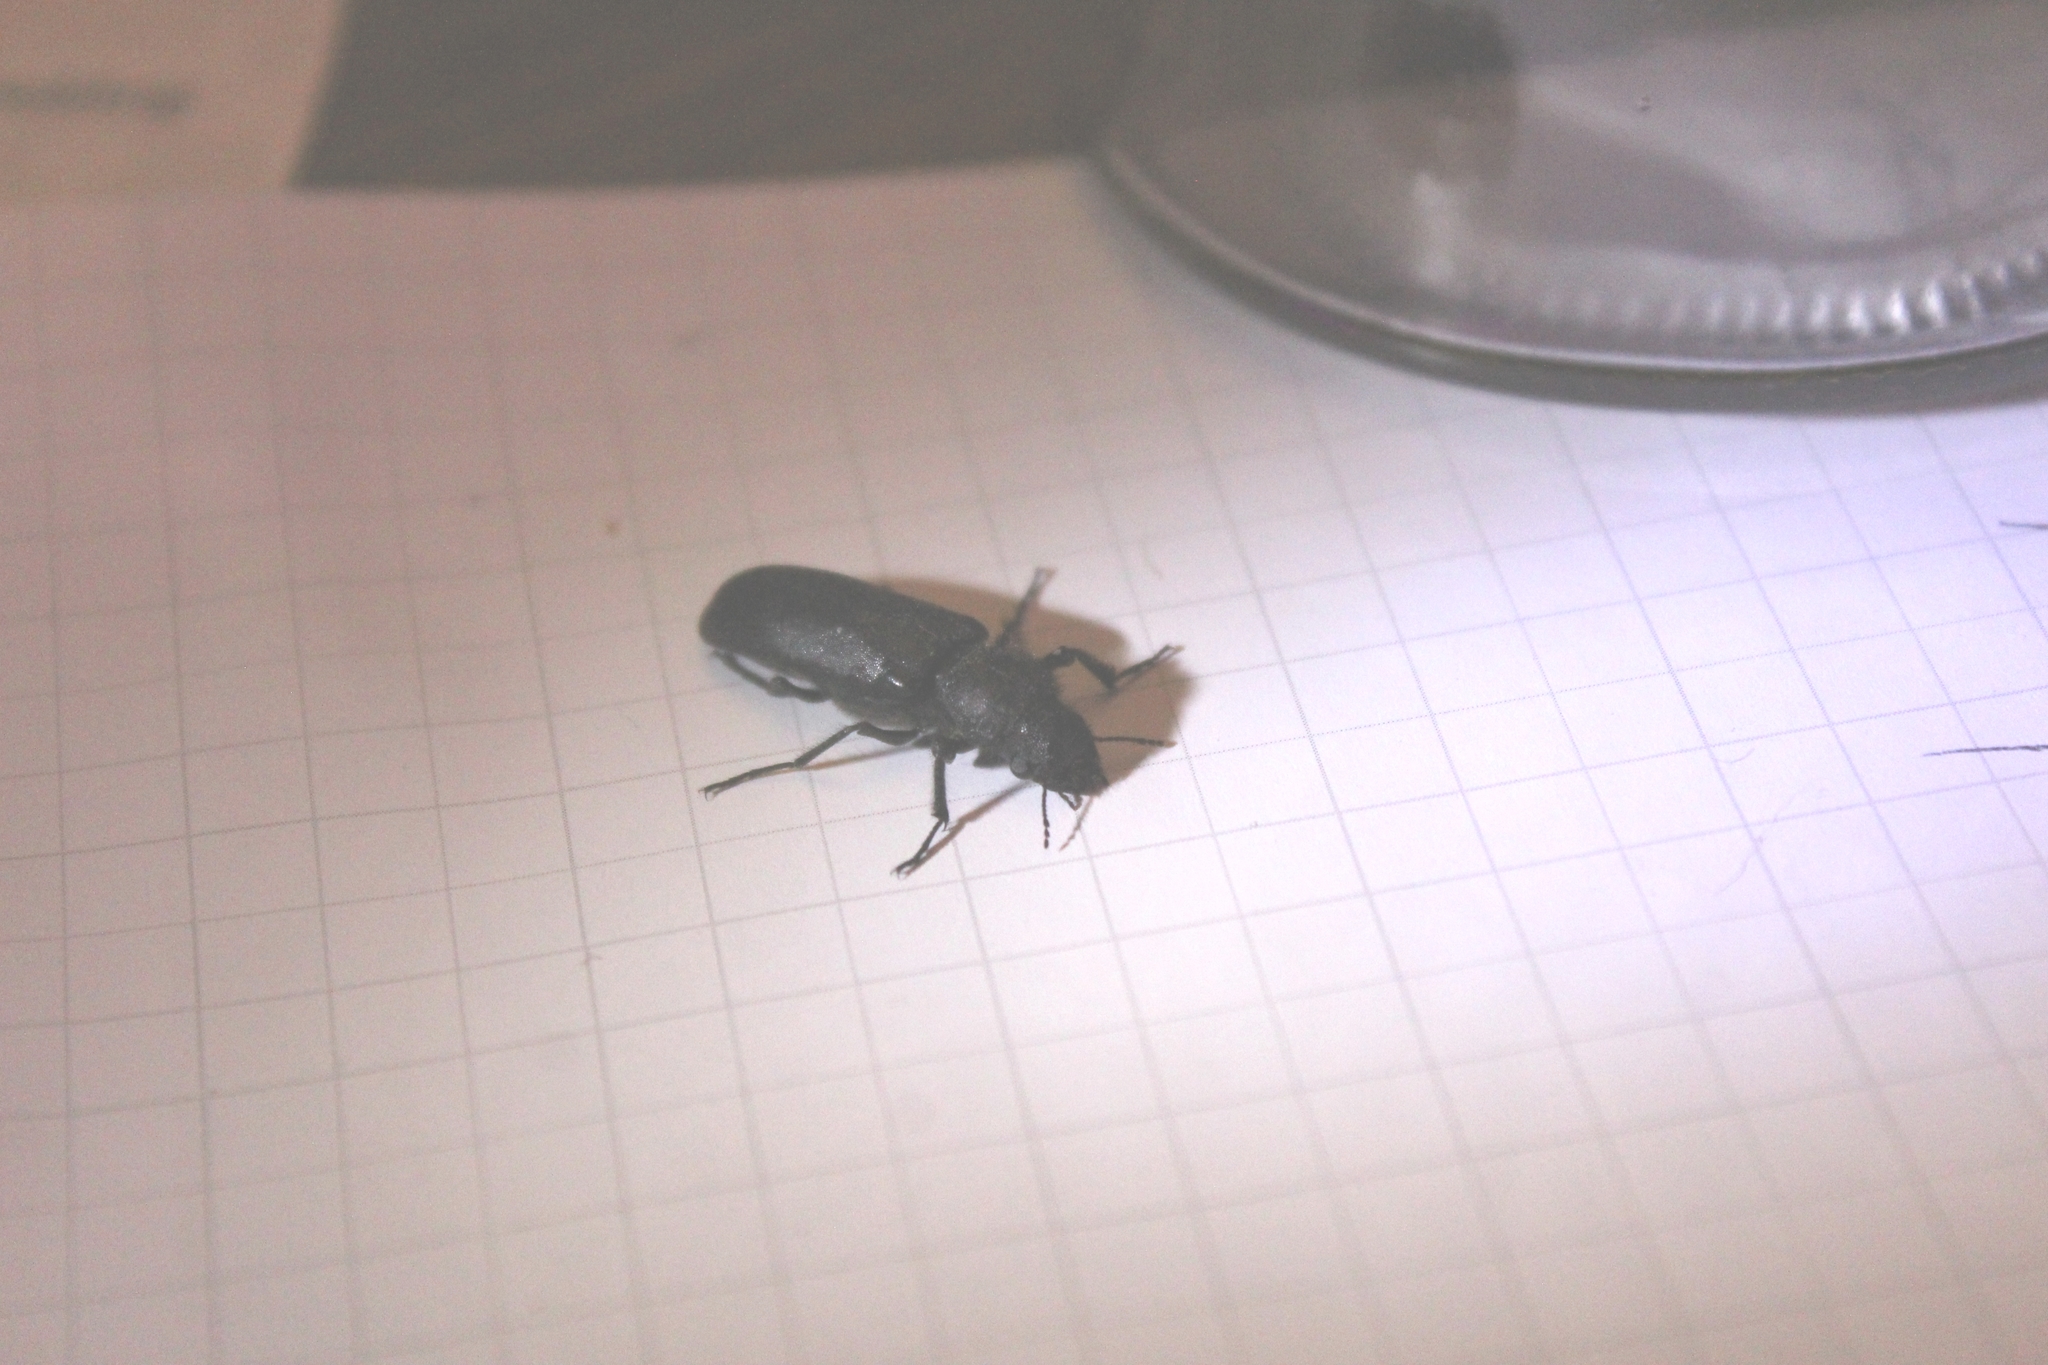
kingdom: Animalia
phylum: Arthropoda
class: Insecta
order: Coleoptera
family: Bostrichidae
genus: Polycaon
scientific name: Polycaon stoutii
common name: Powderpost beetle
